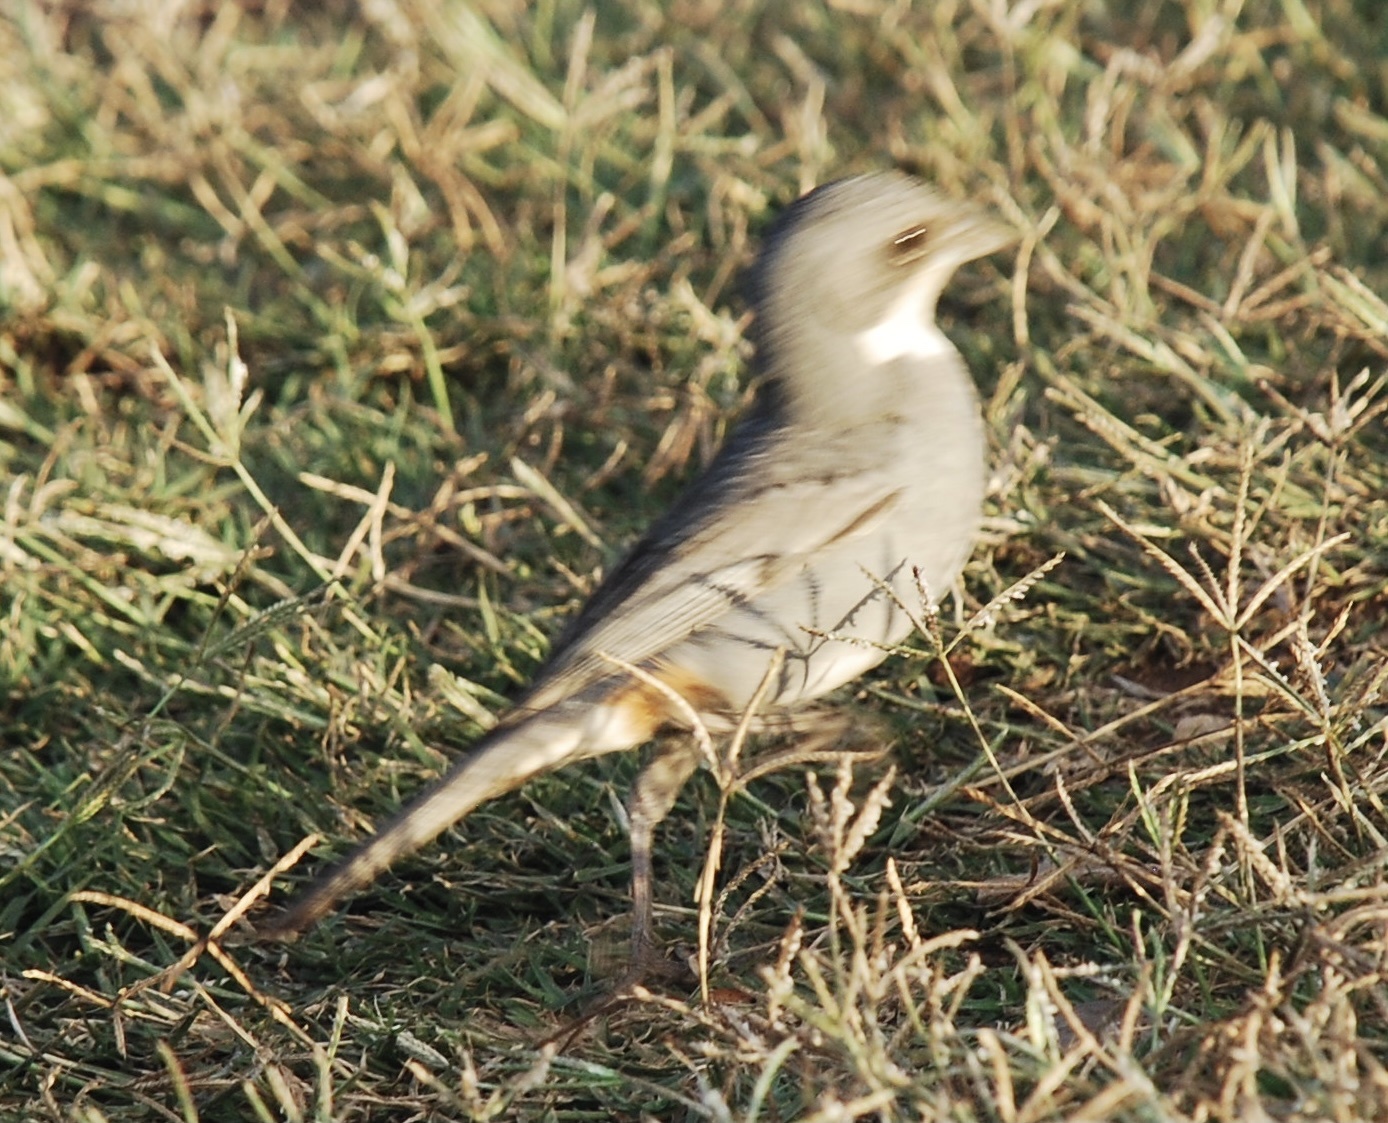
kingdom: Animalia
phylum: Chordata
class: Aves
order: Passeriformes
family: Thraupidae
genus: Diuca
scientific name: Diuca diuca
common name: Common diuca finch
